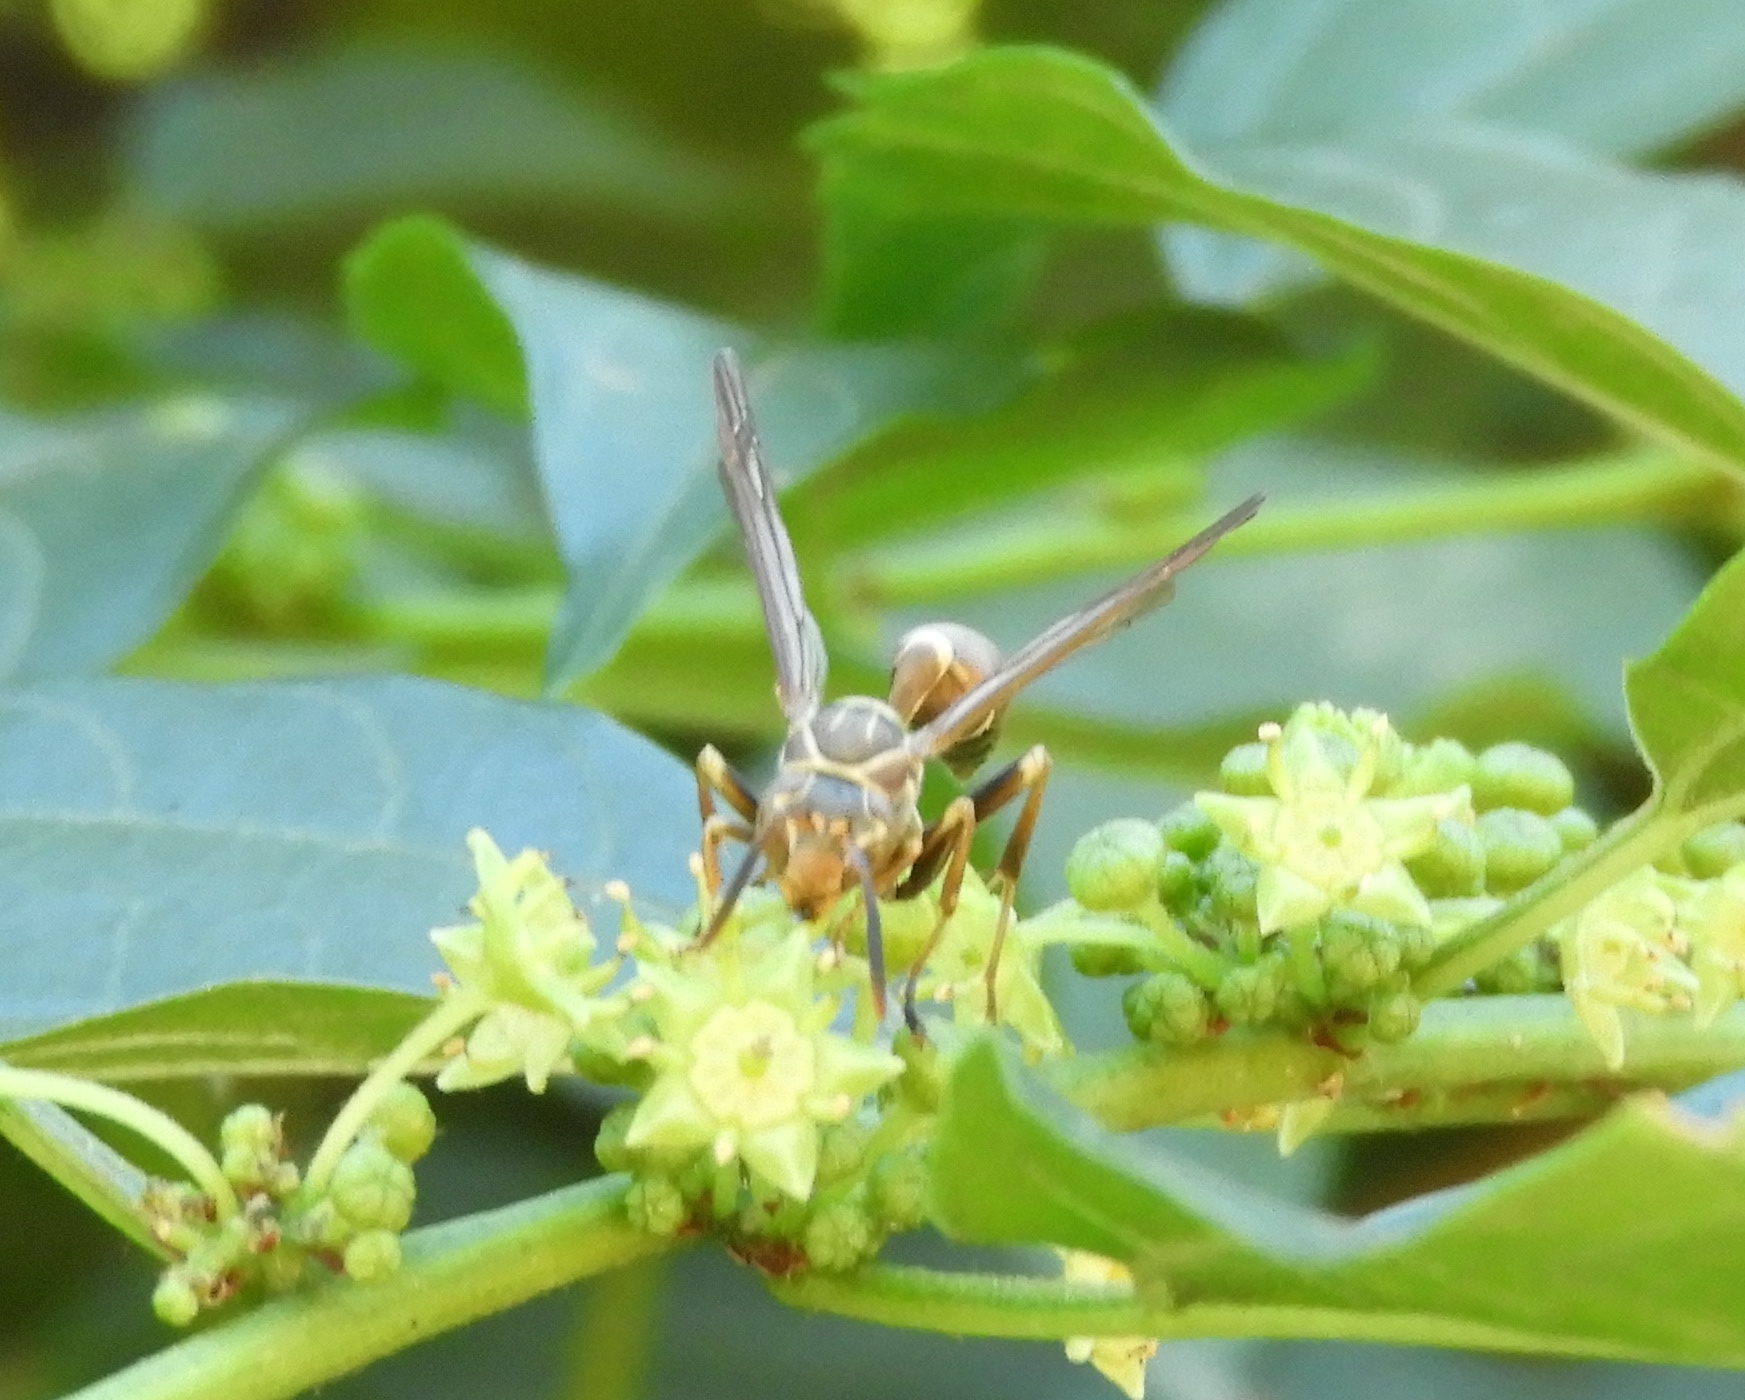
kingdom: Animalia
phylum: Arthropoda
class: Insecta
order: Hymenoptera
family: Vespidae
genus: Mischocyttarus
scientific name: Mischocyttarus mexicanus
